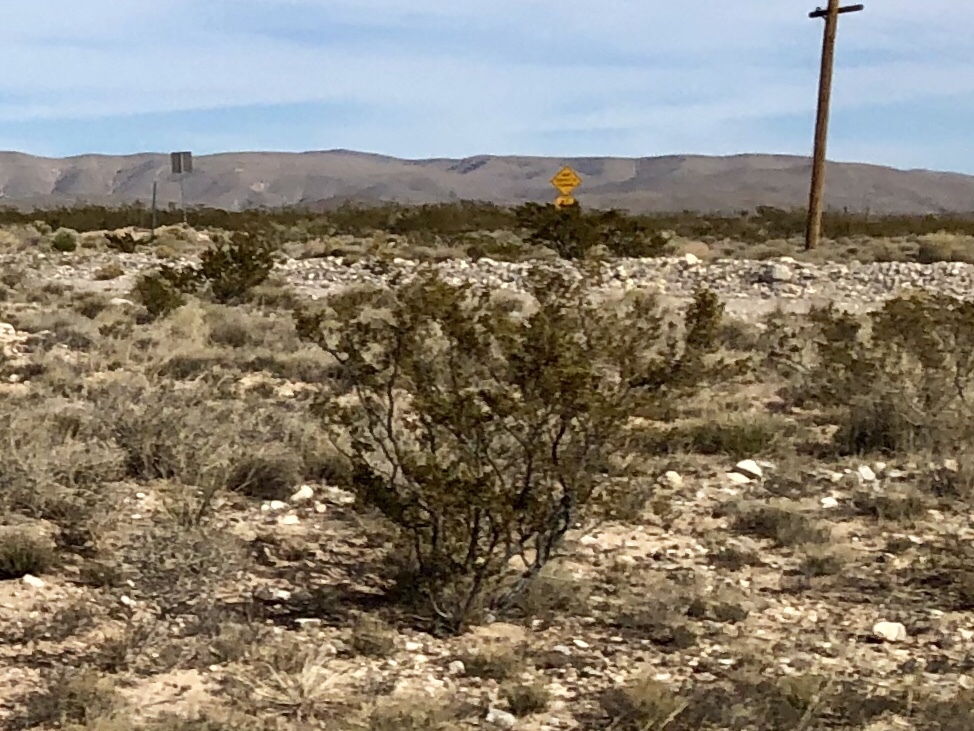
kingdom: Plantae
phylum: Tracheophyta
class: Magnoliopsida
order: Zygophyllales
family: Zygophyllaceae
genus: Larrea
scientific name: Larrea tridentata
